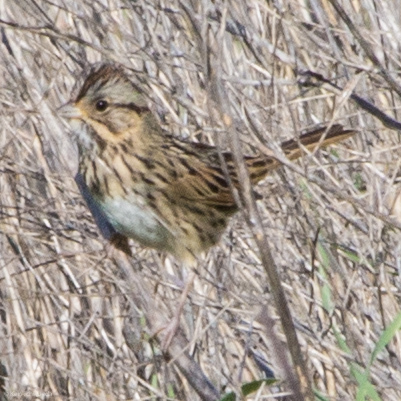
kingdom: Animalia
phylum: Chordata
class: Aves
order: Passeriformes
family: Passerellidae
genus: Melospiza
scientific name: Melospiza lincolnii
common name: Lincoln's sparrow
